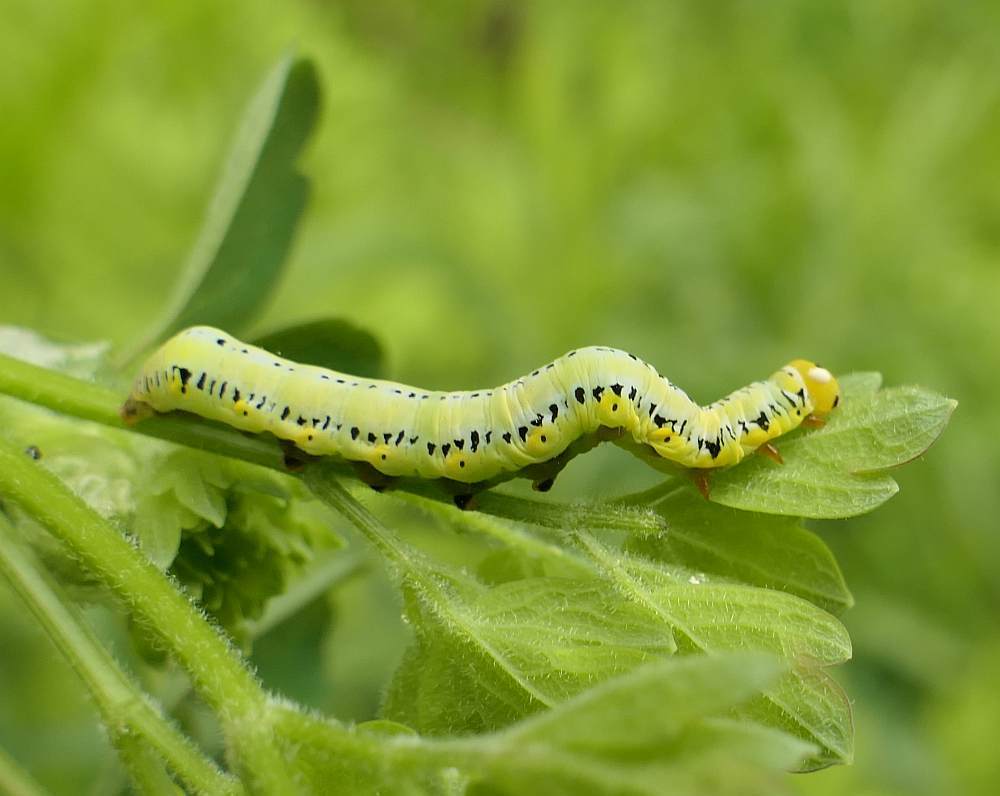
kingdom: Animalia
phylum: Arthropoda
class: Insecta
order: Lepidoptera
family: Erebidae
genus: Calyptra
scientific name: Calyptra canadensis
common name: Canadian owlet
